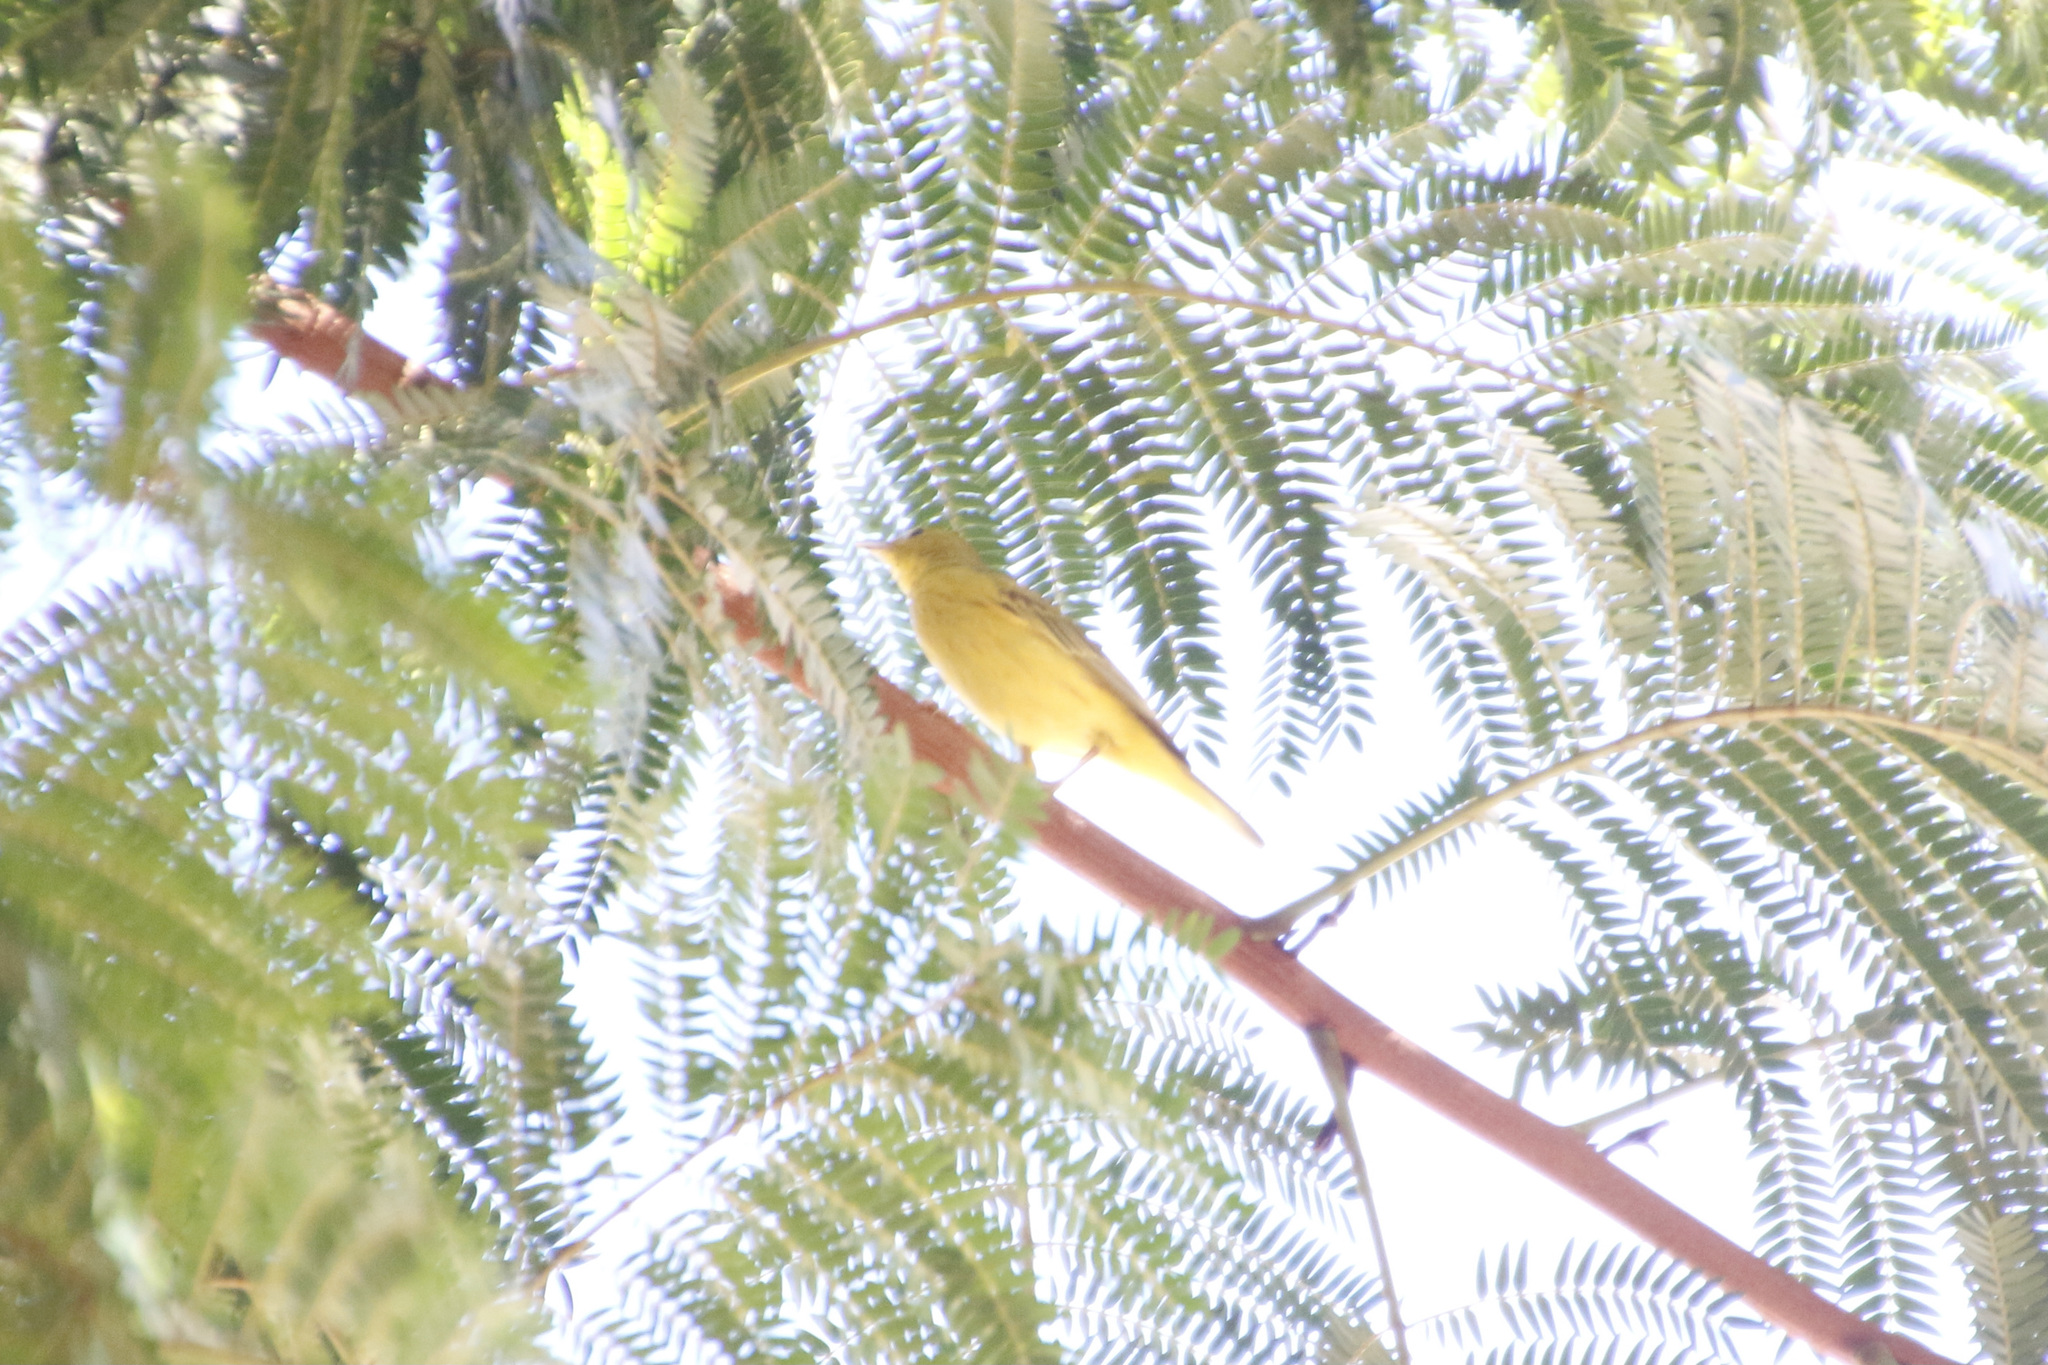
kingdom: Animalia
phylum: Chordata
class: Aves
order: Passeriformes
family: Parulidae
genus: Setophaga
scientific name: Setophaga petechia
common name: Yellow warbler
